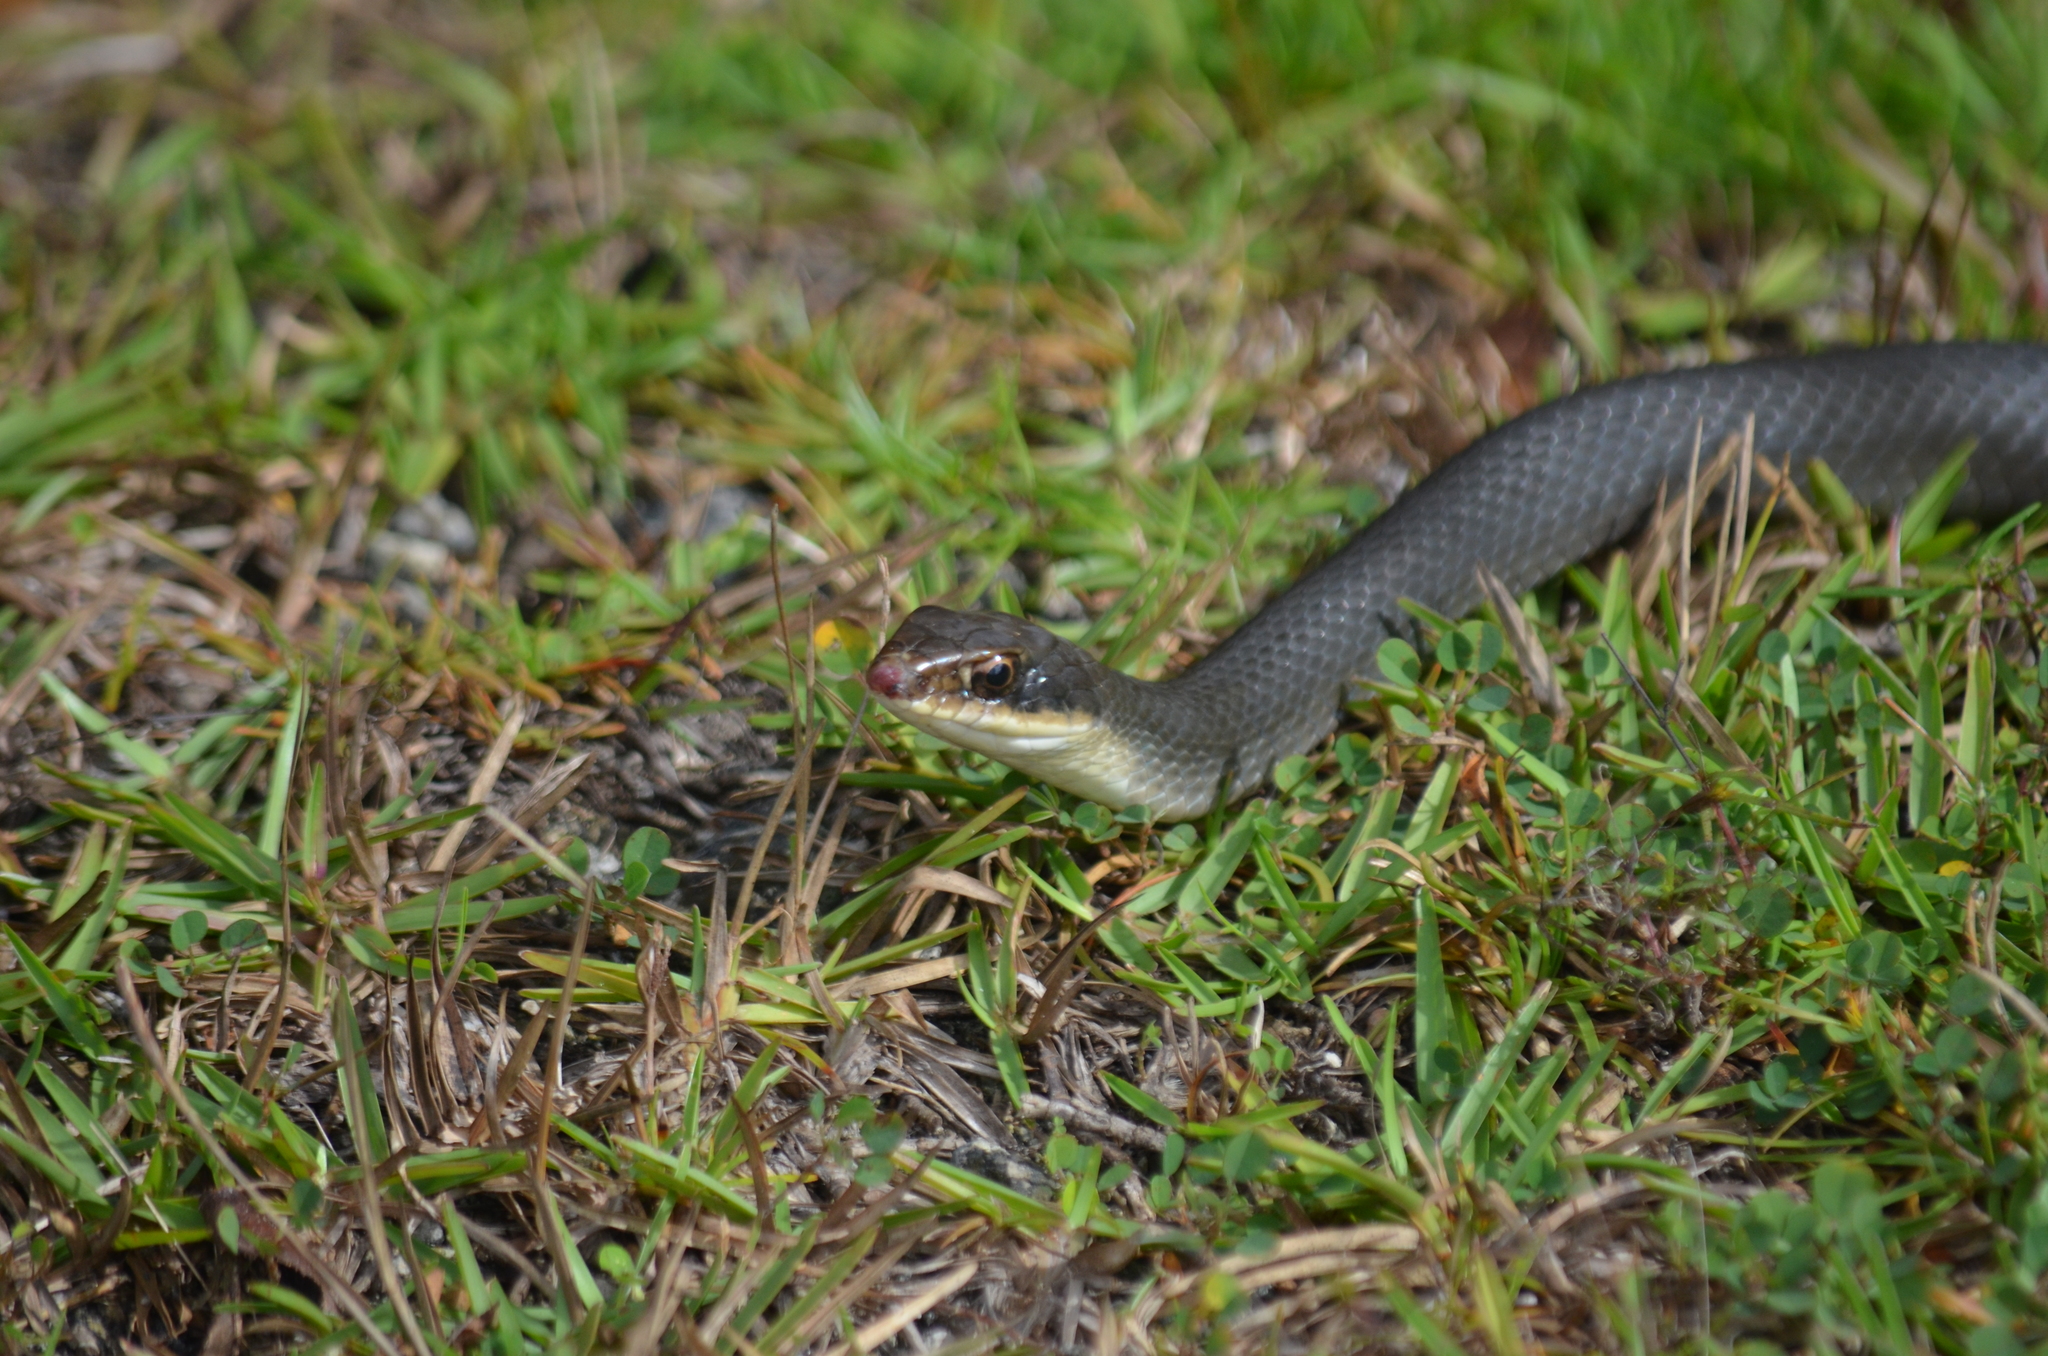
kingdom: Animalia
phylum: Chordata
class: Squamata
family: Colubridae
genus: Coluber
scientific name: Coluber constrictor
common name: Eastern racer
